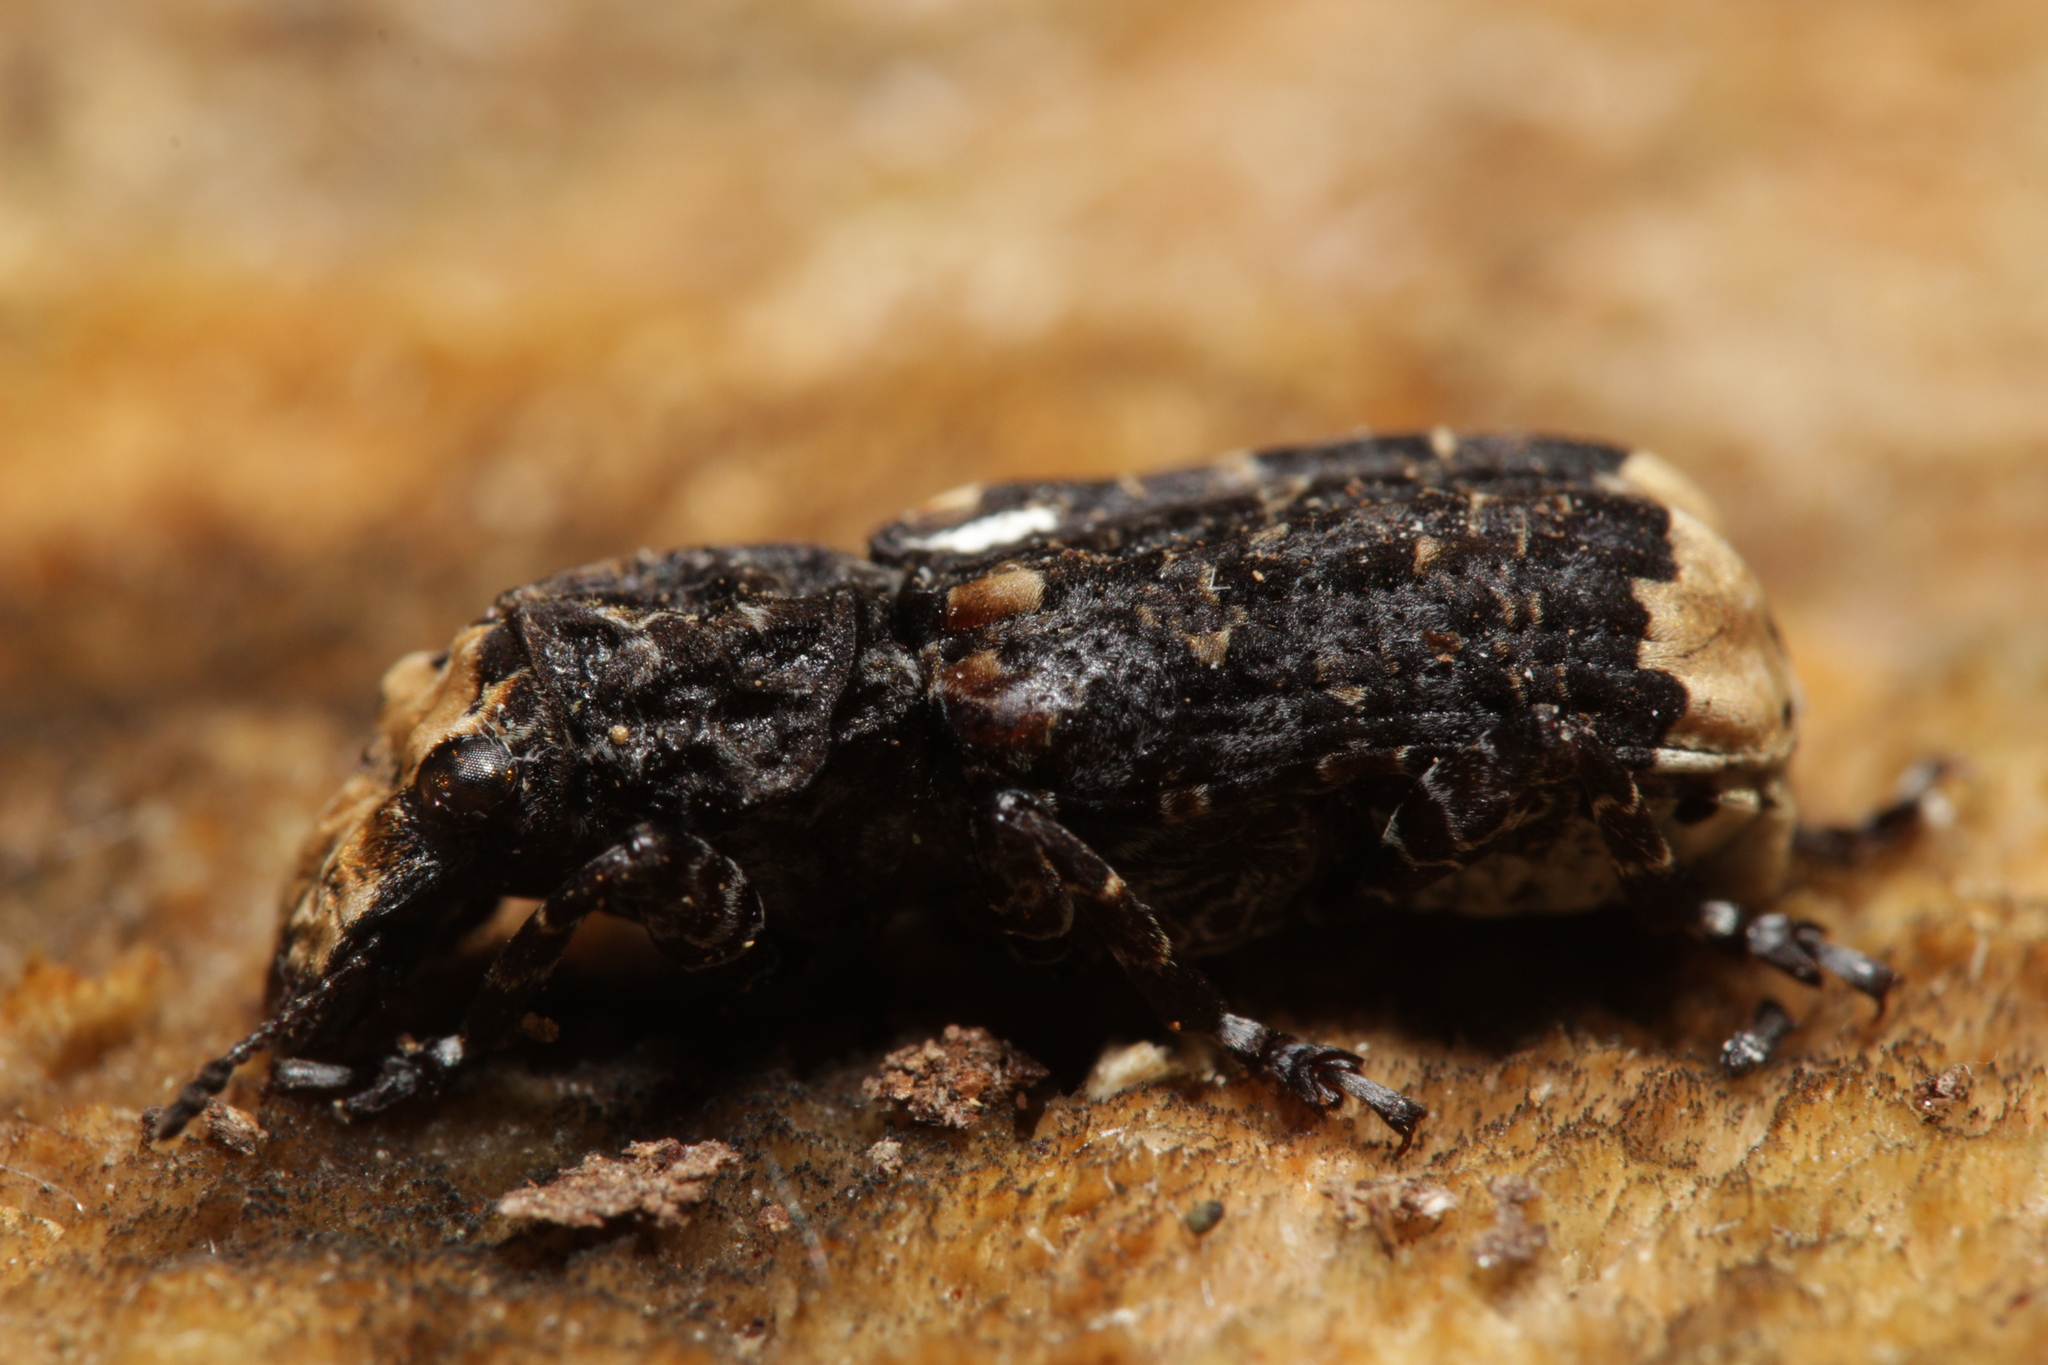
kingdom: Animalia
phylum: Arthropoda
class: Insecta
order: Coleoptera
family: Anthribidae
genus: Platyrhinus
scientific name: Platyrhinus resinosus
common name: Cramp-ball fungus weevil
